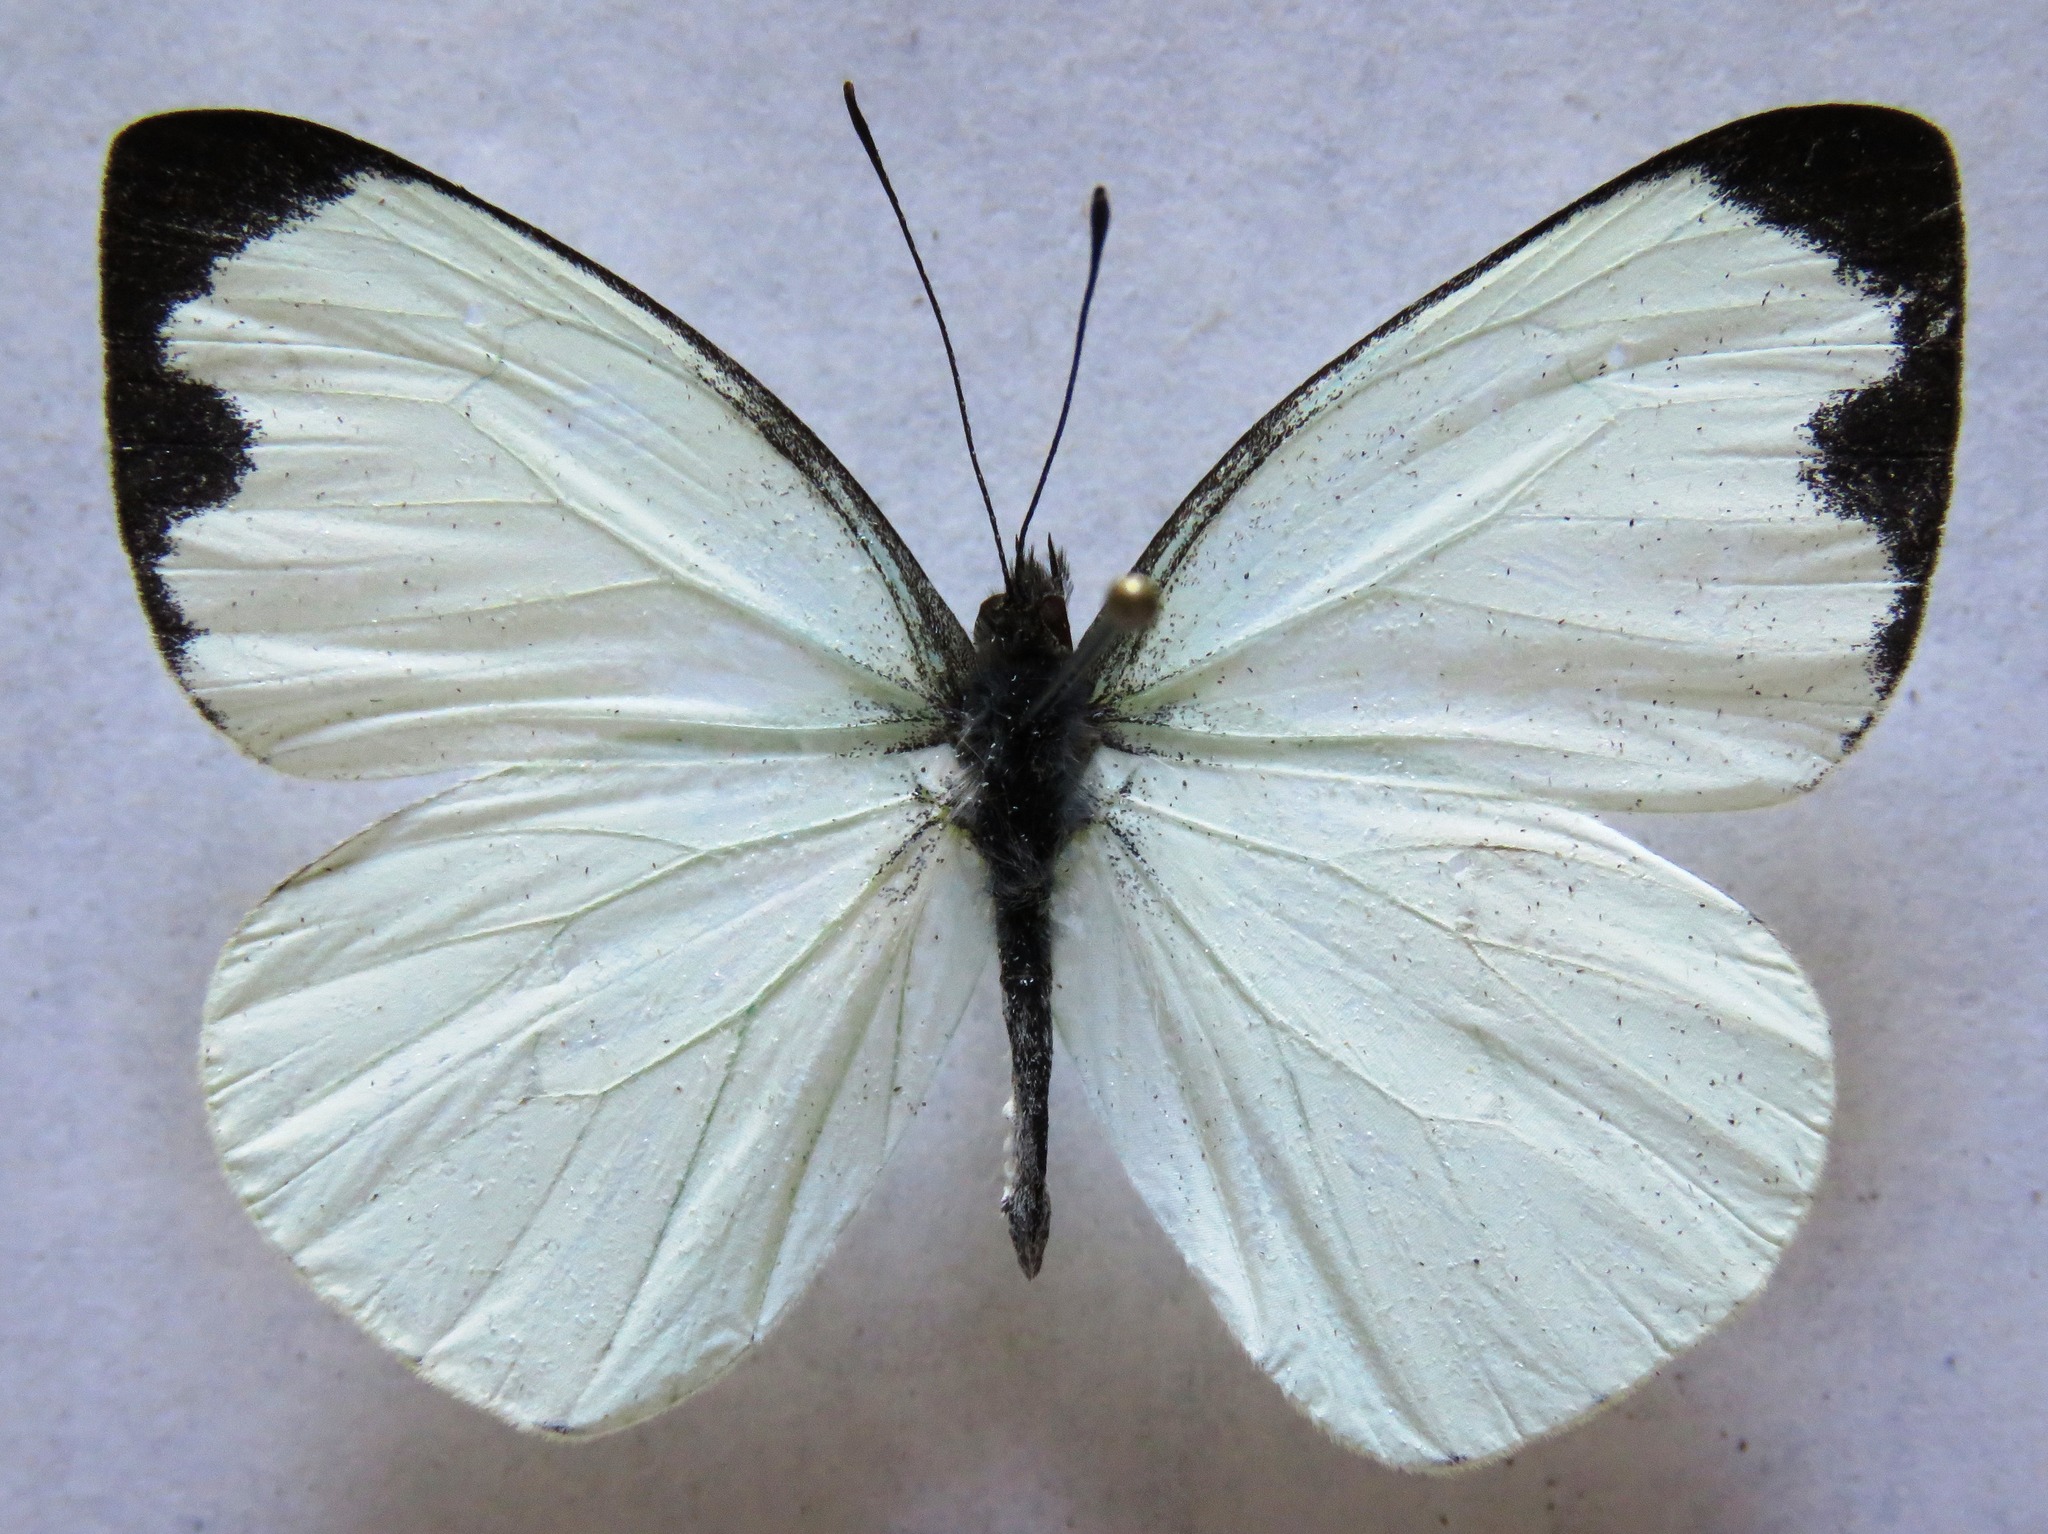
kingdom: Animalia
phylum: Arthropoda
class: Insecta
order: Lepidoptera
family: Pieridae
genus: Leptophobia
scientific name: Leptophobia aripa
